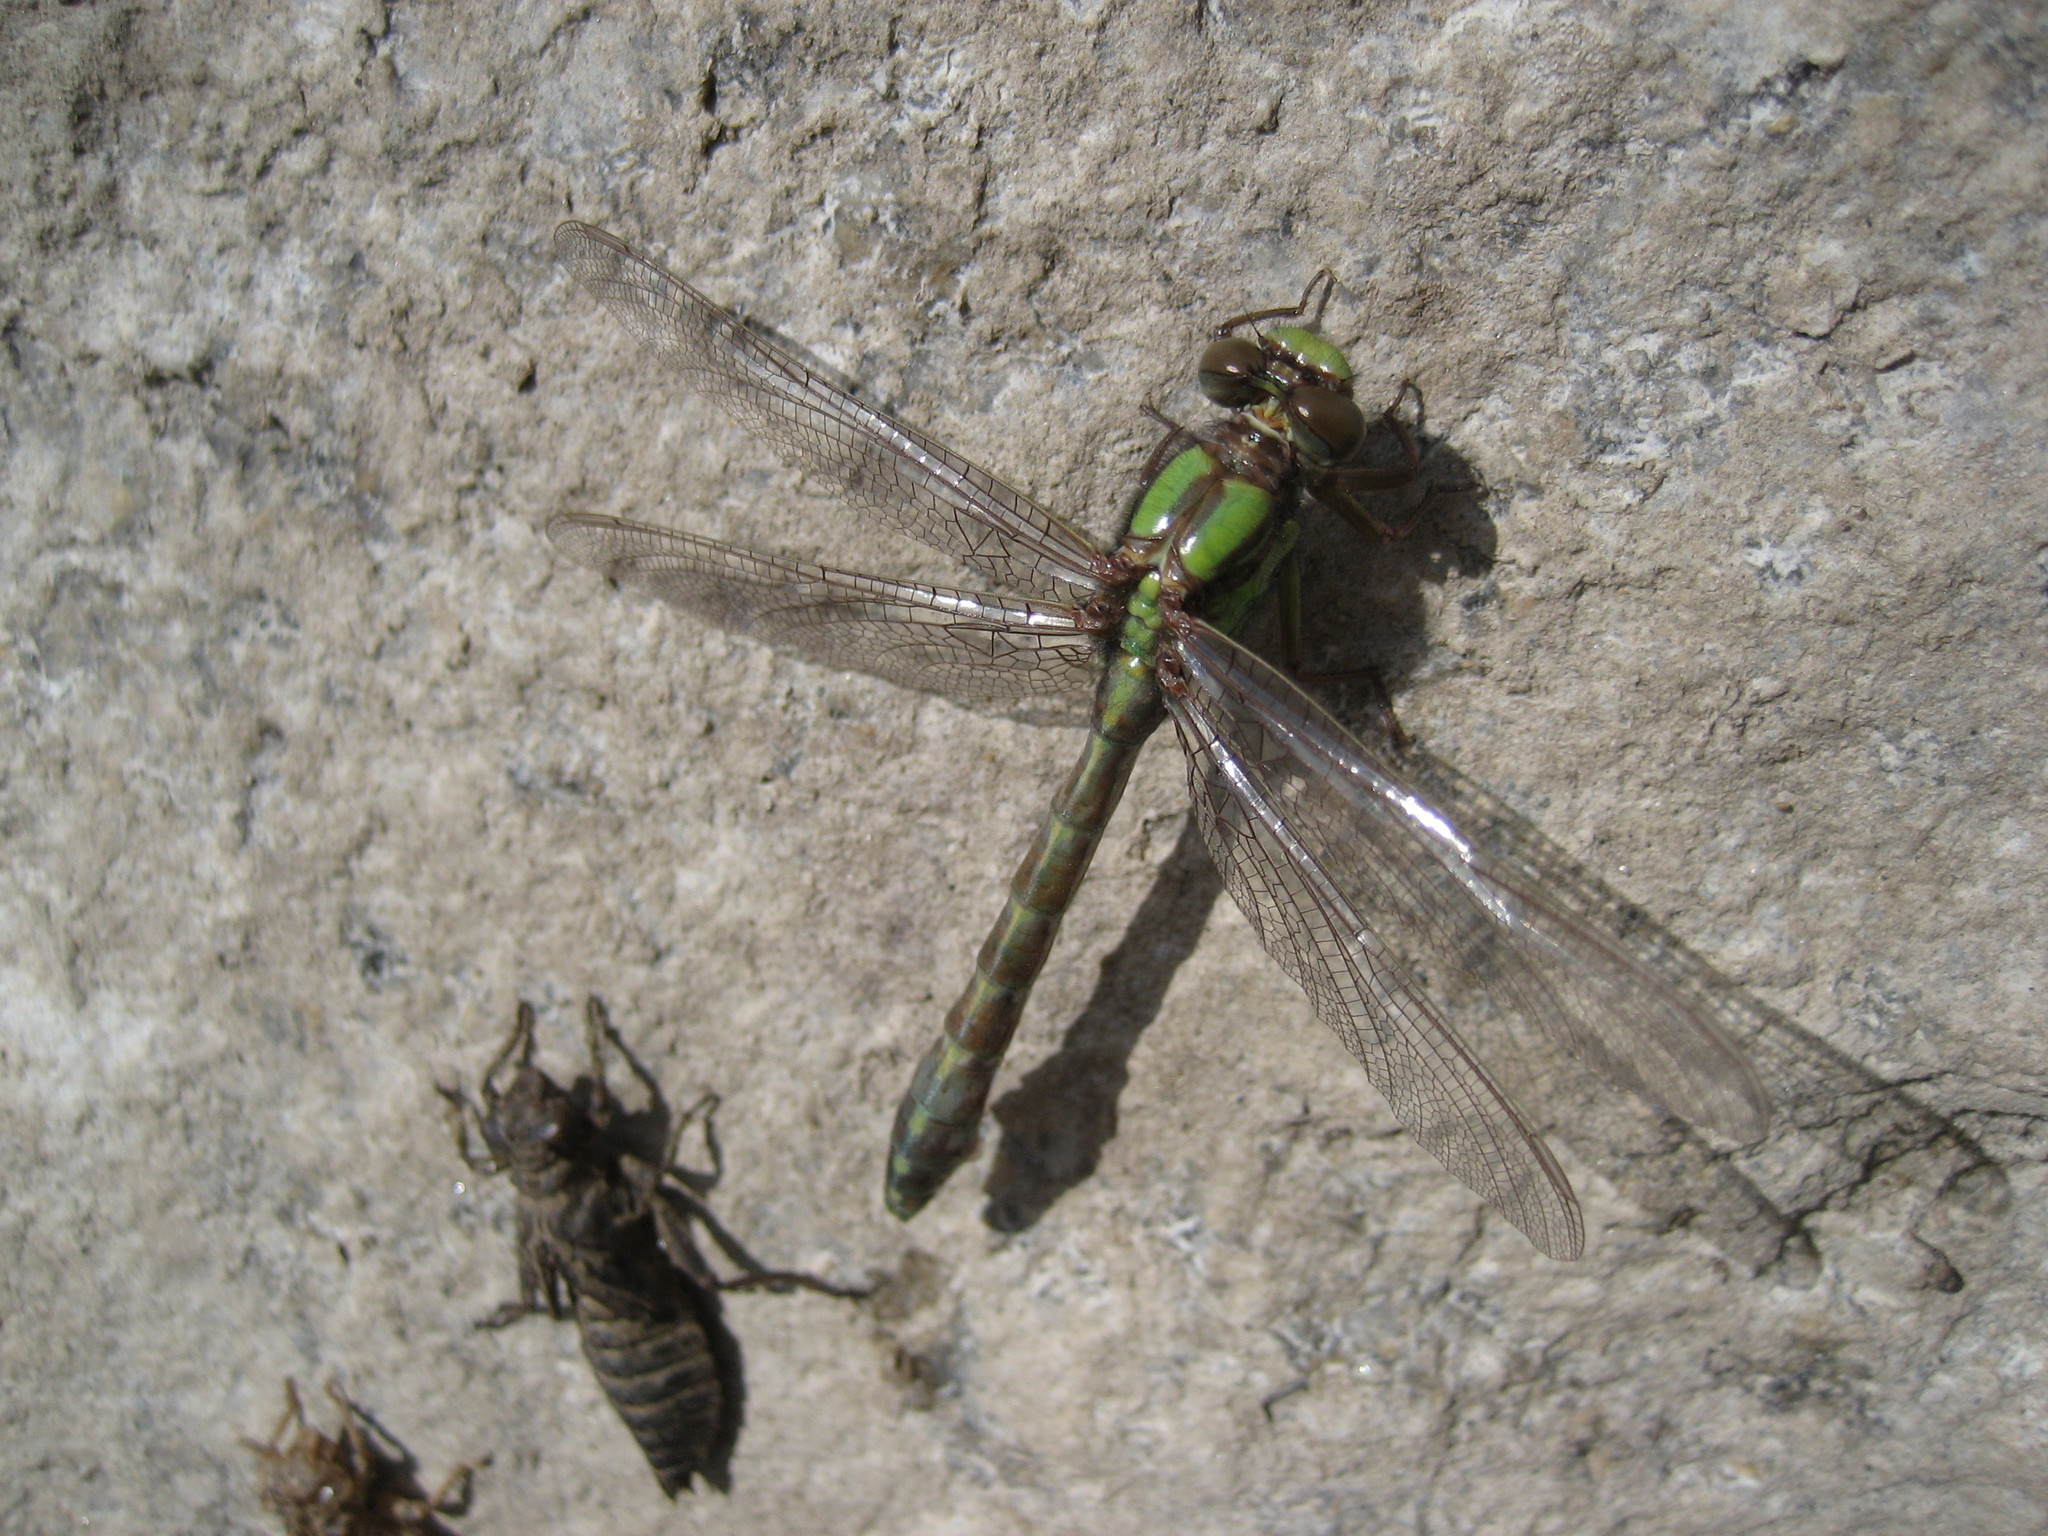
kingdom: Animalia
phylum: Arthropoda
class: Insecta
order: Odonata
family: Gomphidae
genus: Ophiogomphus
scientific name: Ophiogomphus colubrinus
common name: Boreal snaketail
